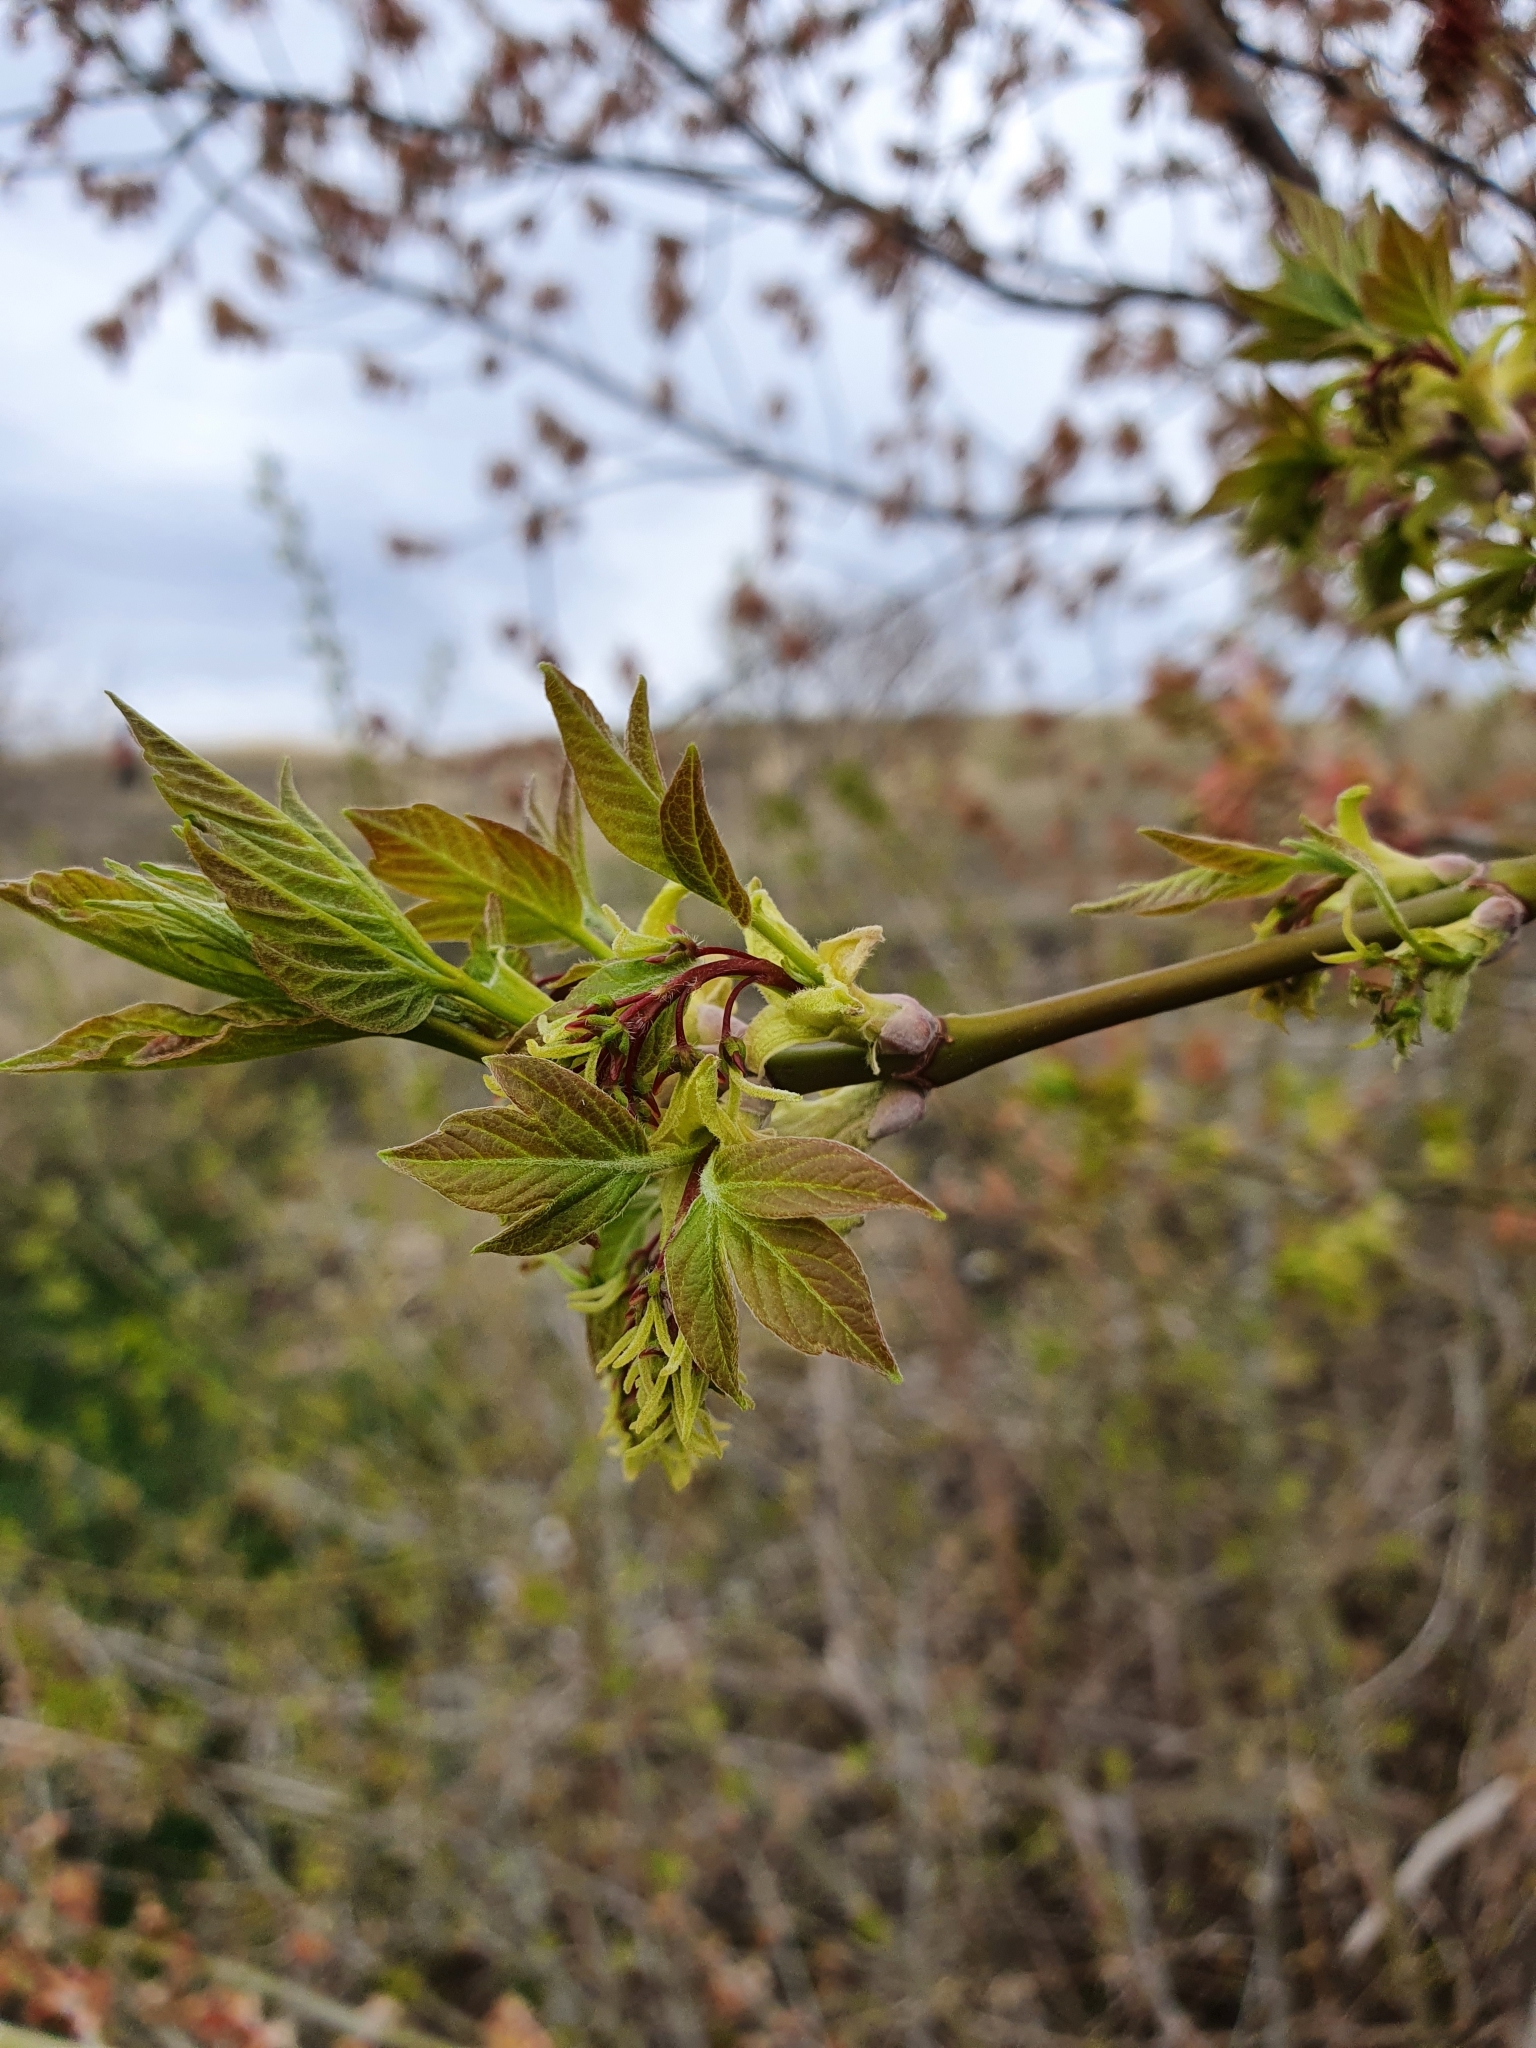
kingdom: Plantae
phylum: Tracheophyta
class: Magnoliopsida
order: Sapindales
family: Sapindaceae
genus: Acer
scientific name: Acer negundo
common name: Ashleaf maple
